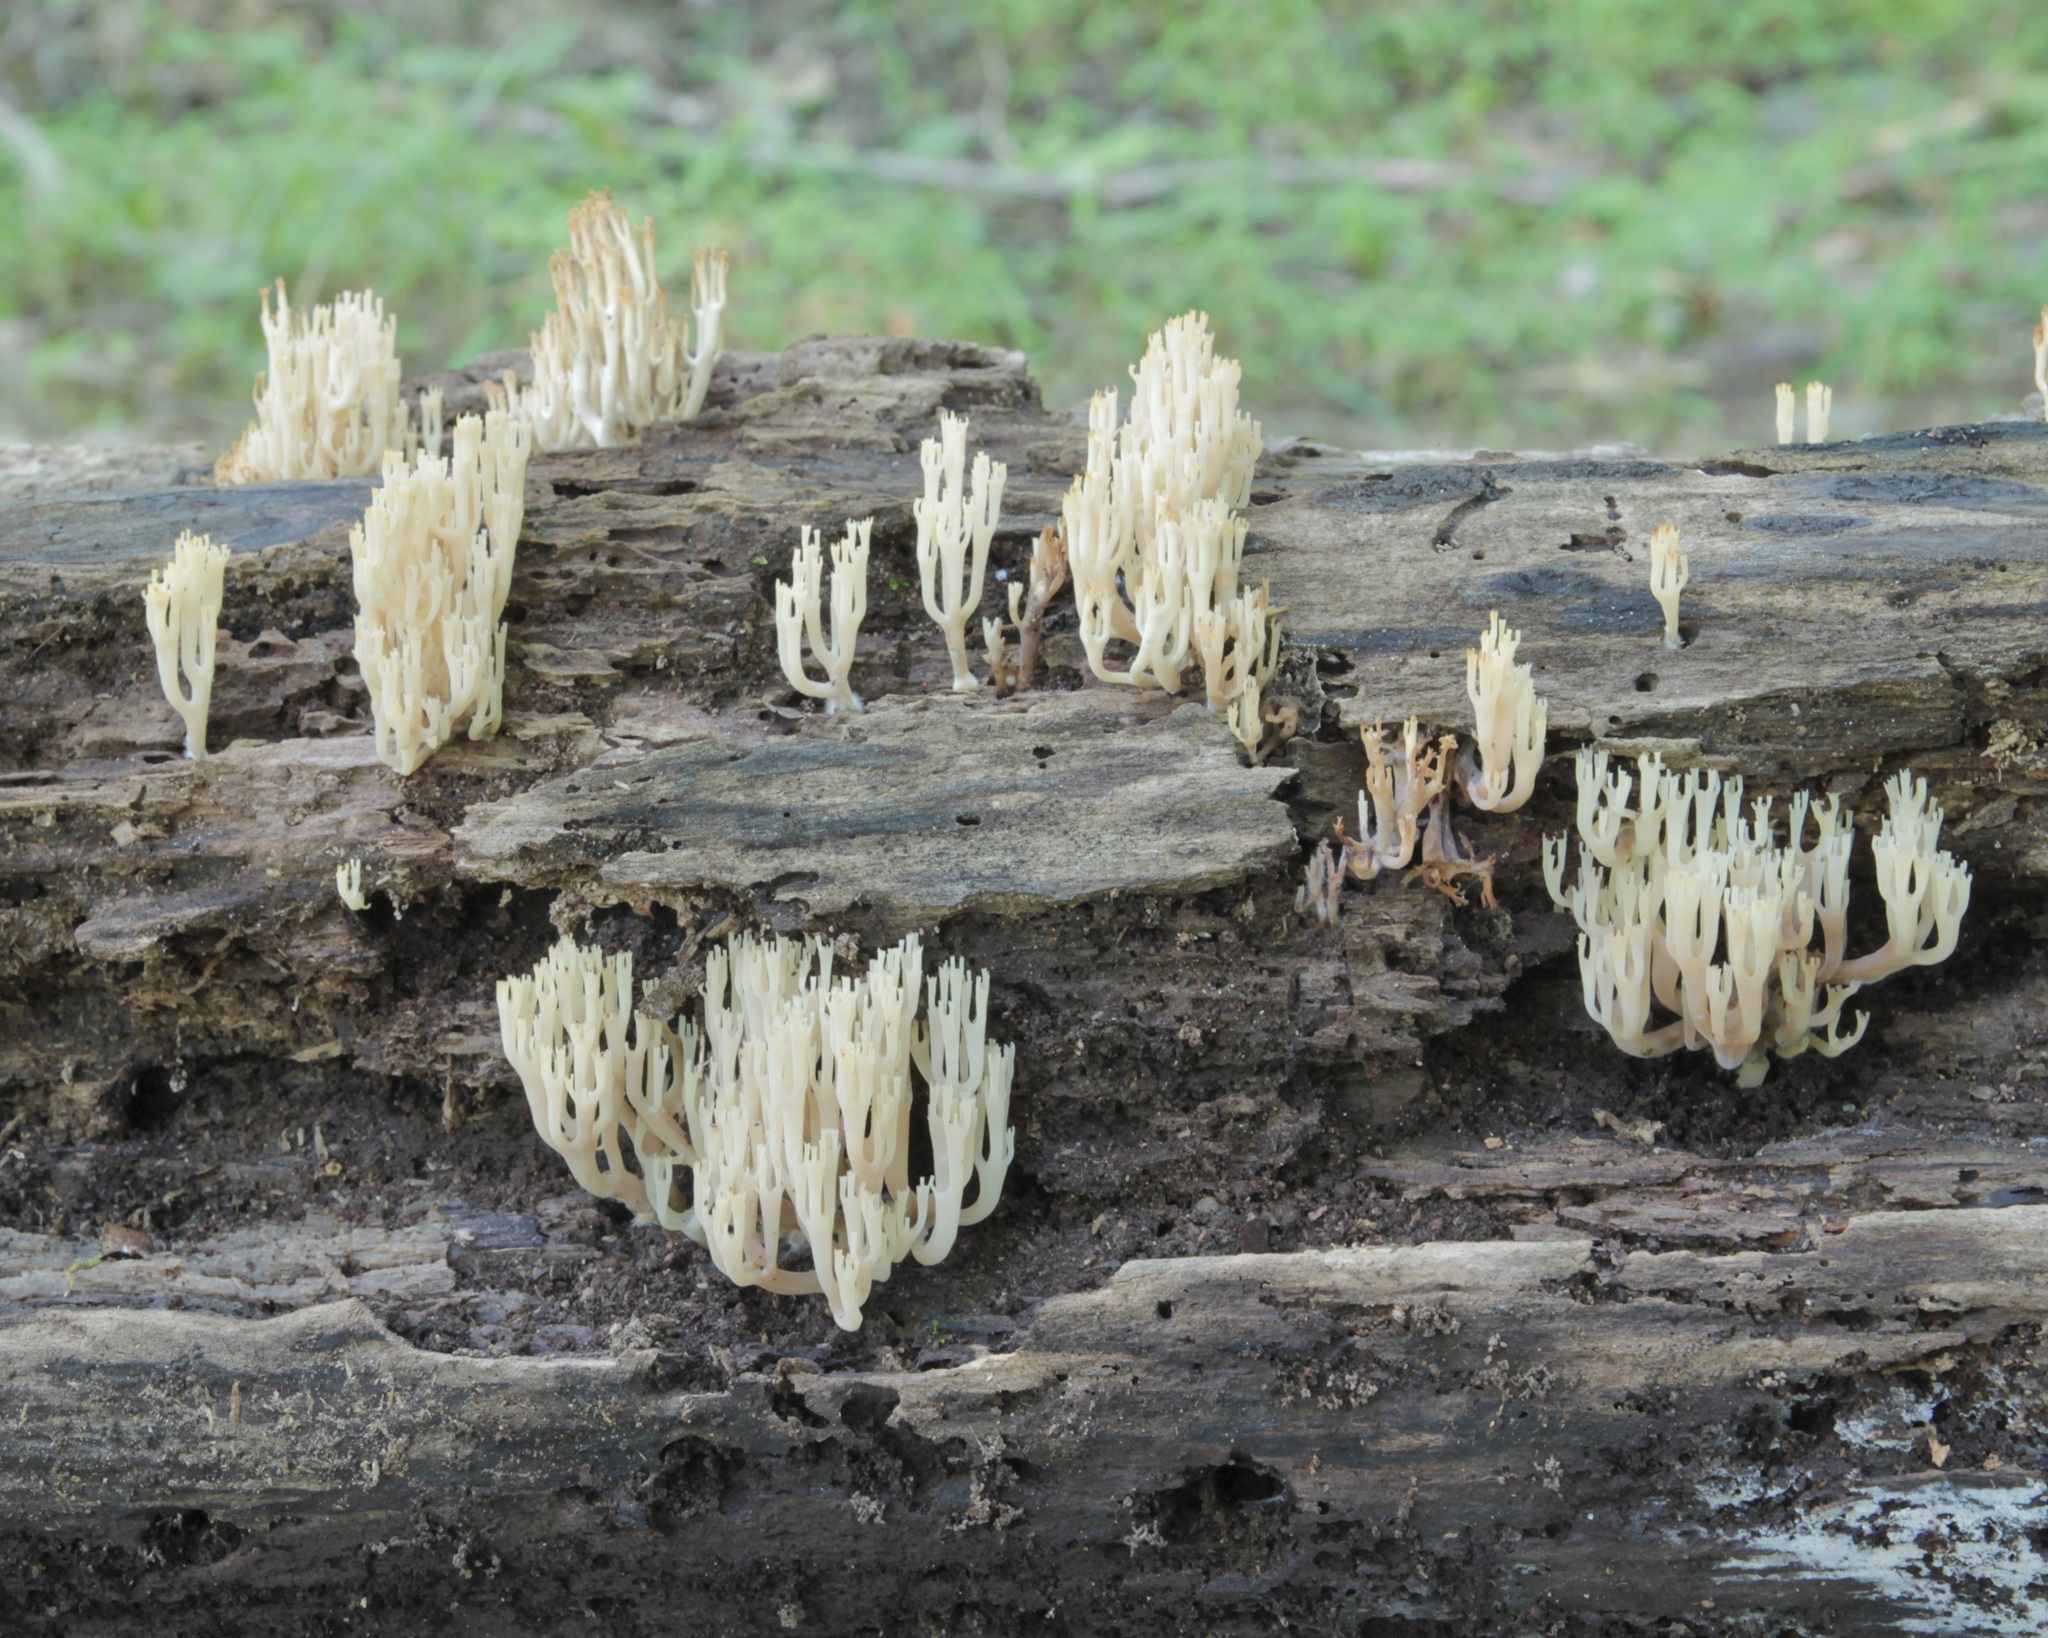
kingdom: Fungi
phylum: Basidiomycota
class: Agaricomycetes
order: Russulales
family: Auriscalpiaceae
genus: Artomyces
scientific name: Artomyces pyxidatus
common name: Crown-tipped coral fungus
